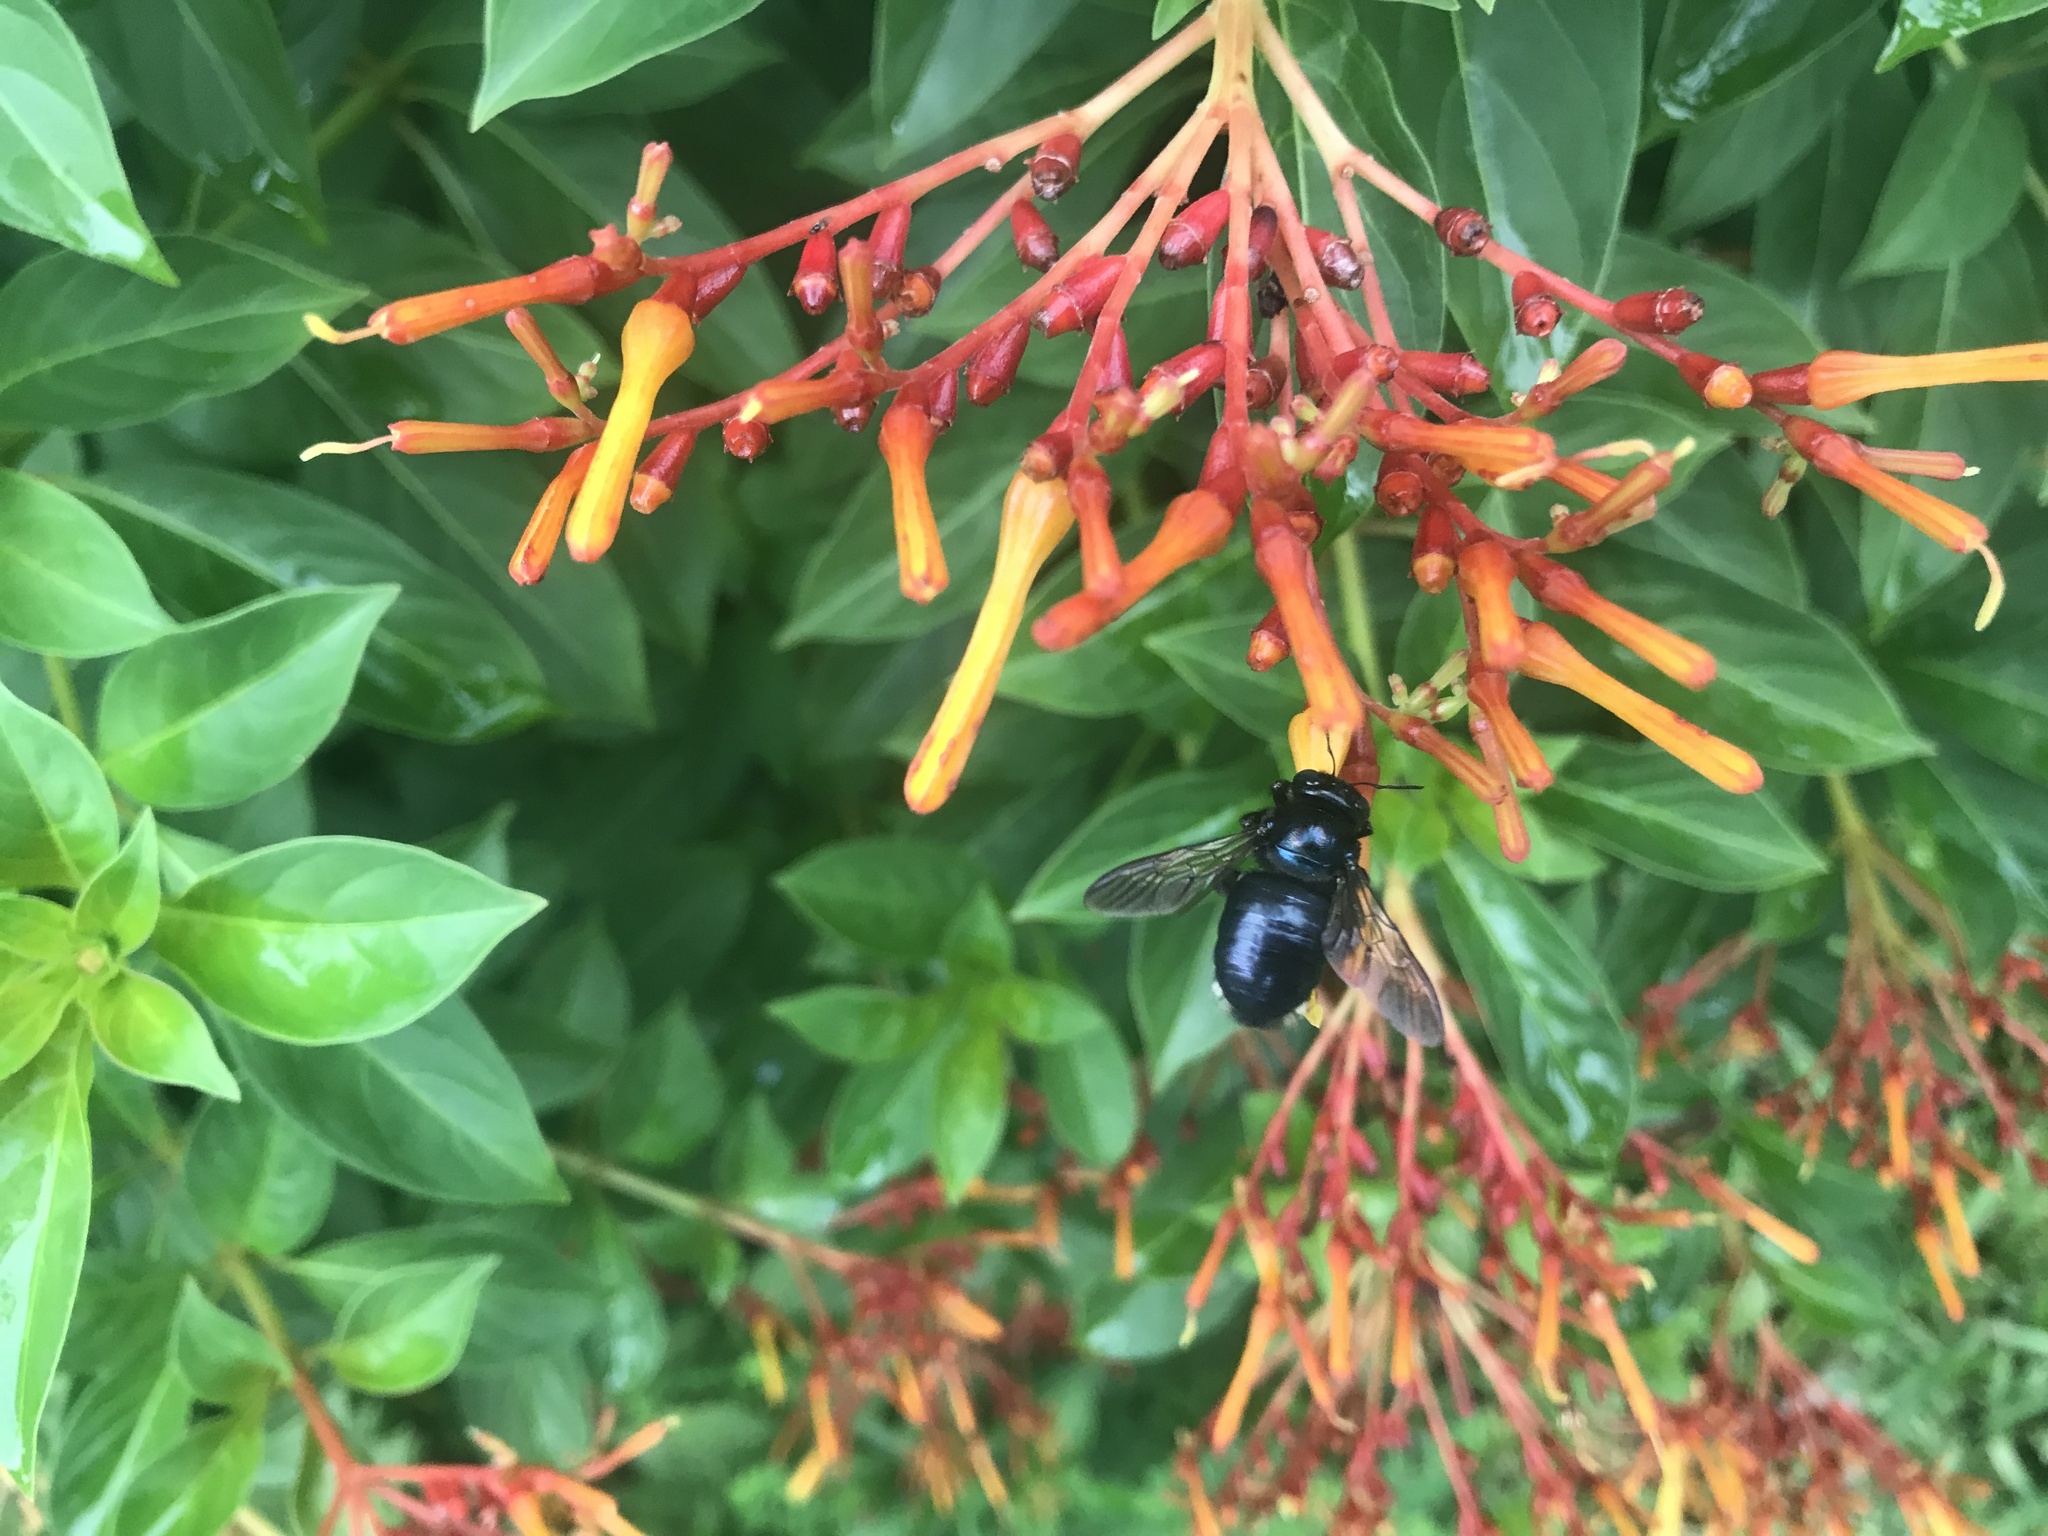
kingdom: Animalia
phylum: Arthropoda
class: Insecta
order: Hymenoptera
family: Apidae
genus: Xylocopa
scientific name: Xylocopa micans
